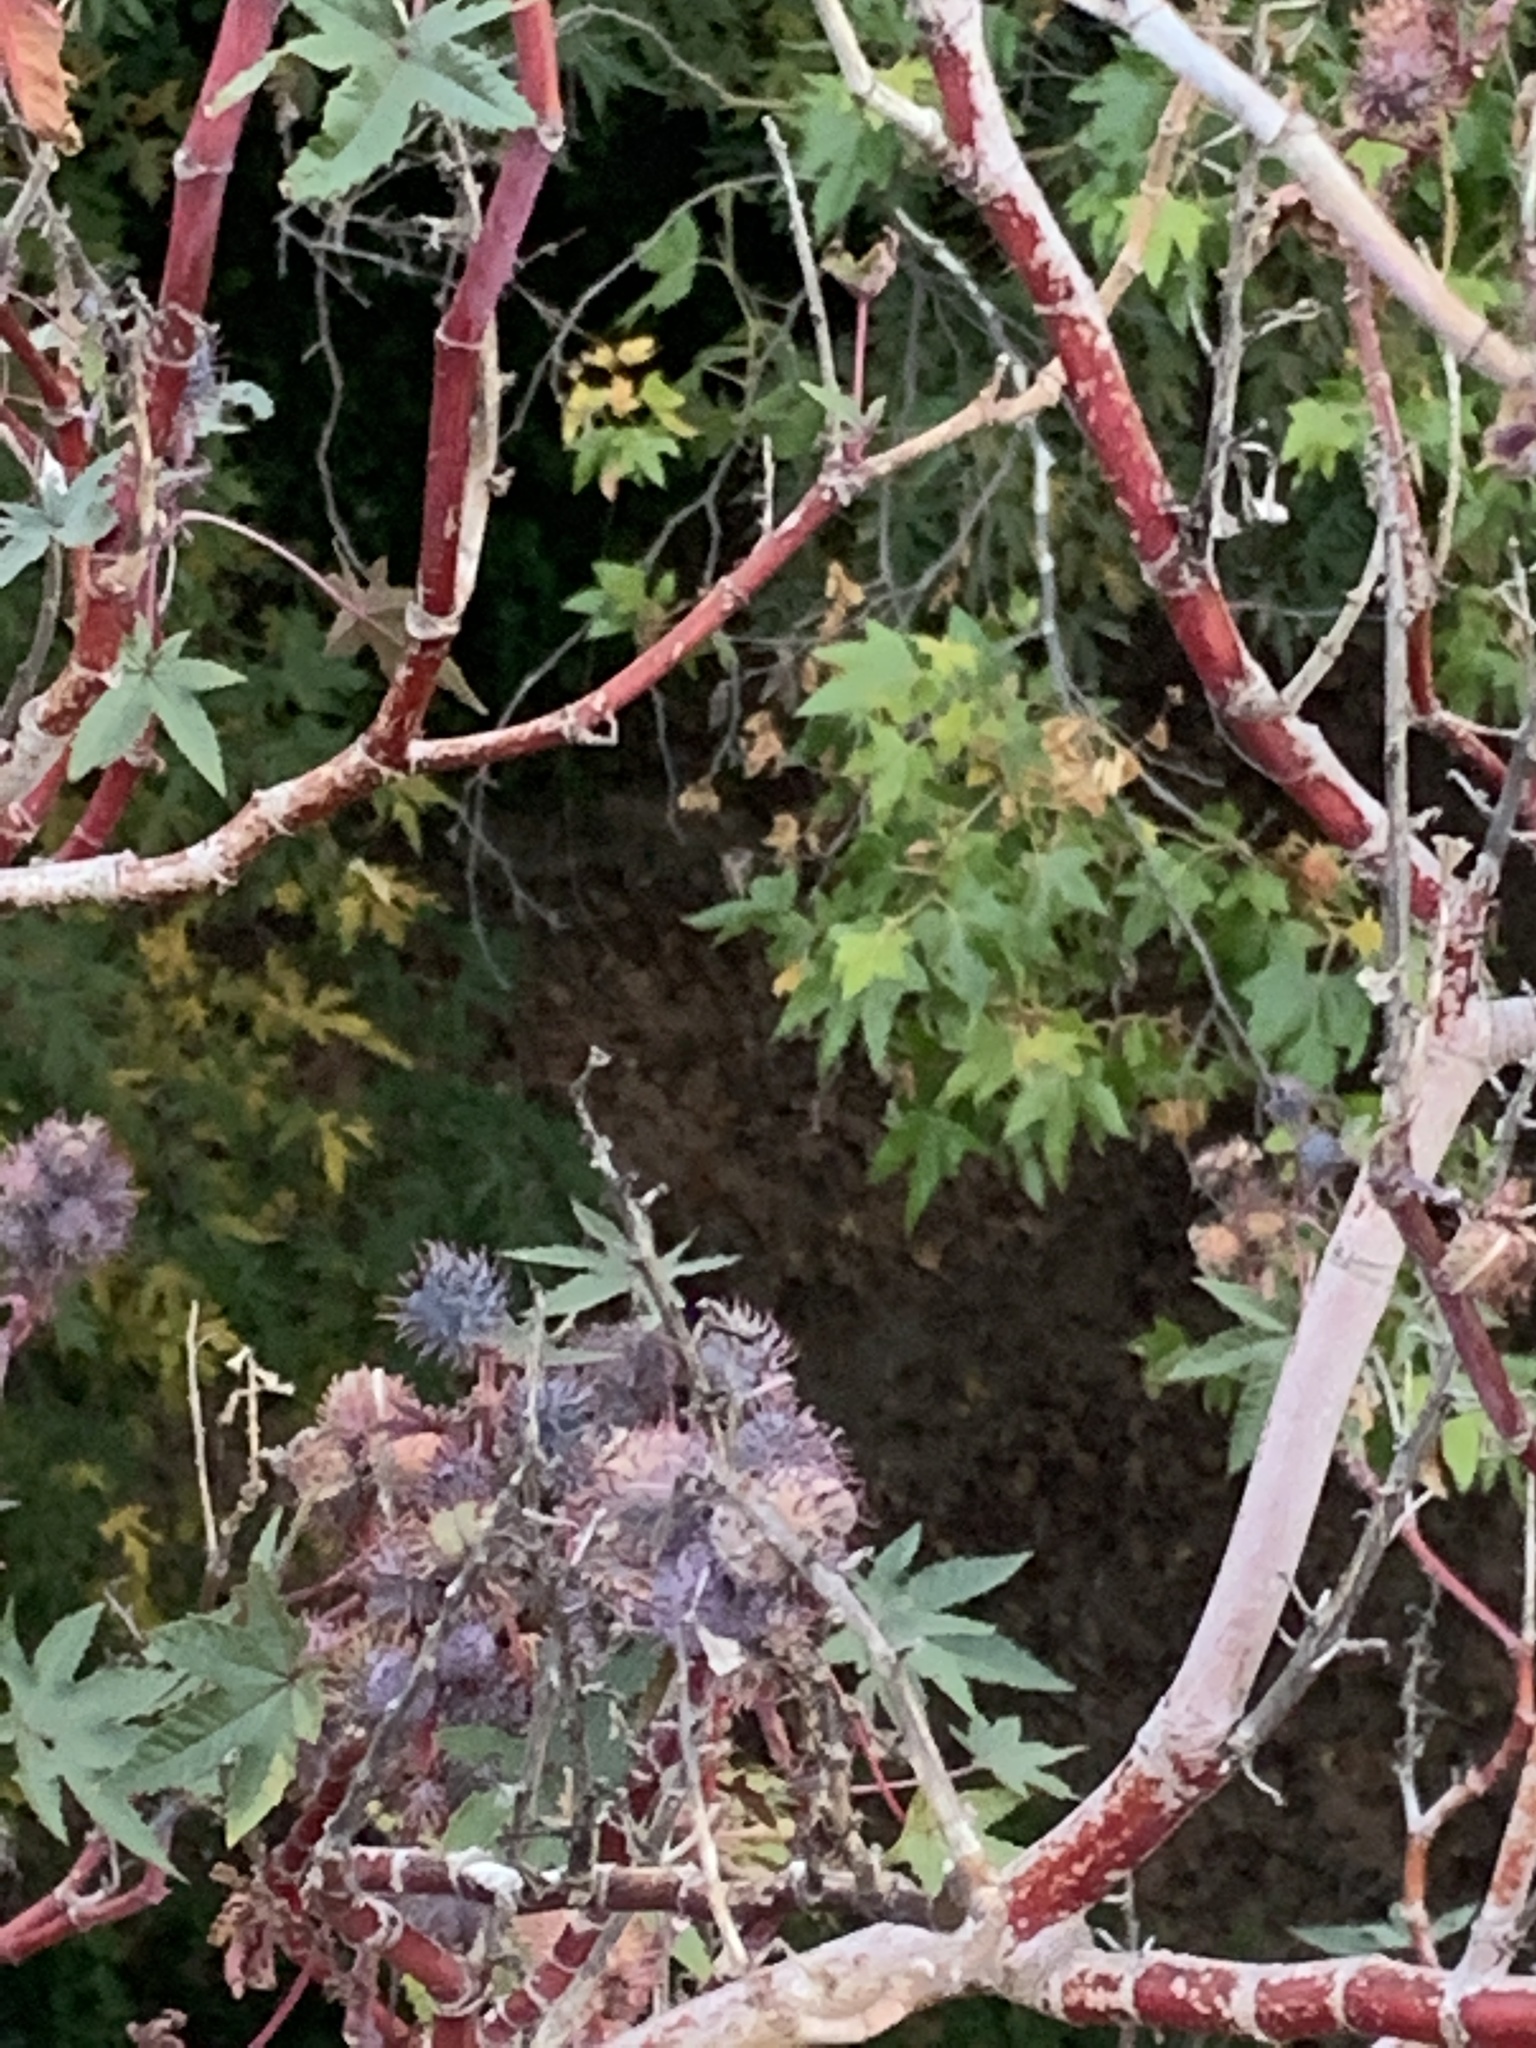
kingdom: Plantae
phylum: Tracheophyta
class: Magnoliopsida
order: Malpighiales
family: Euphorbiaceae
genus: Ricinus
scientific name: Ricinus communis
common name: Castor-oil-plant
